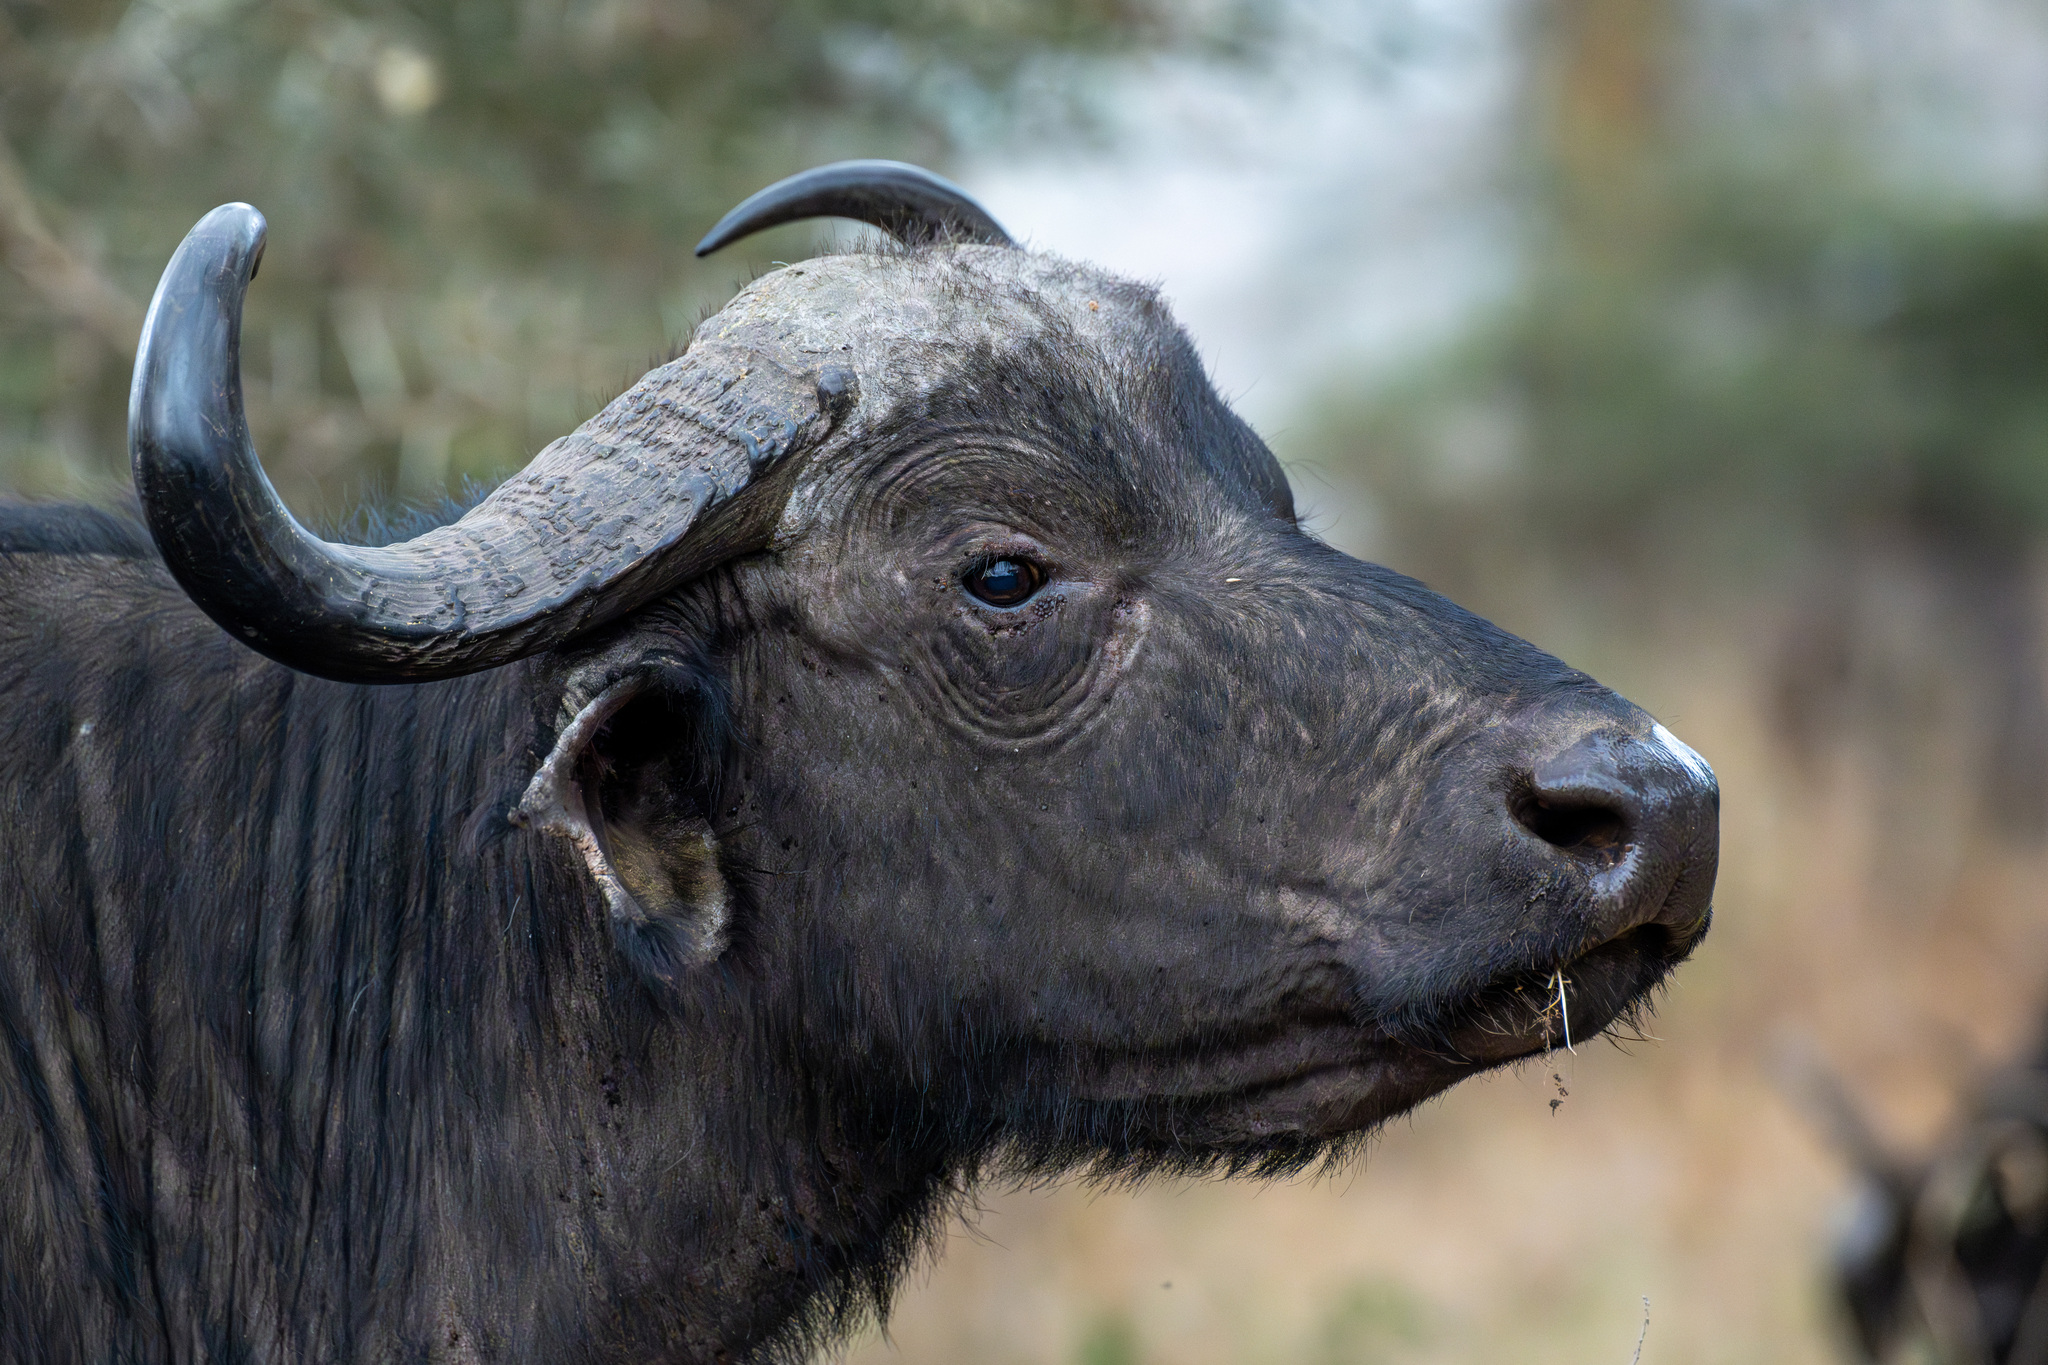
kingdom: Animalia
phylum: Chordata
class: Mammalia
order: Artiodactyla
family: Bovidae
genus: Syncerus
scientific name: Syncerus caffer
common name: African buffalo
